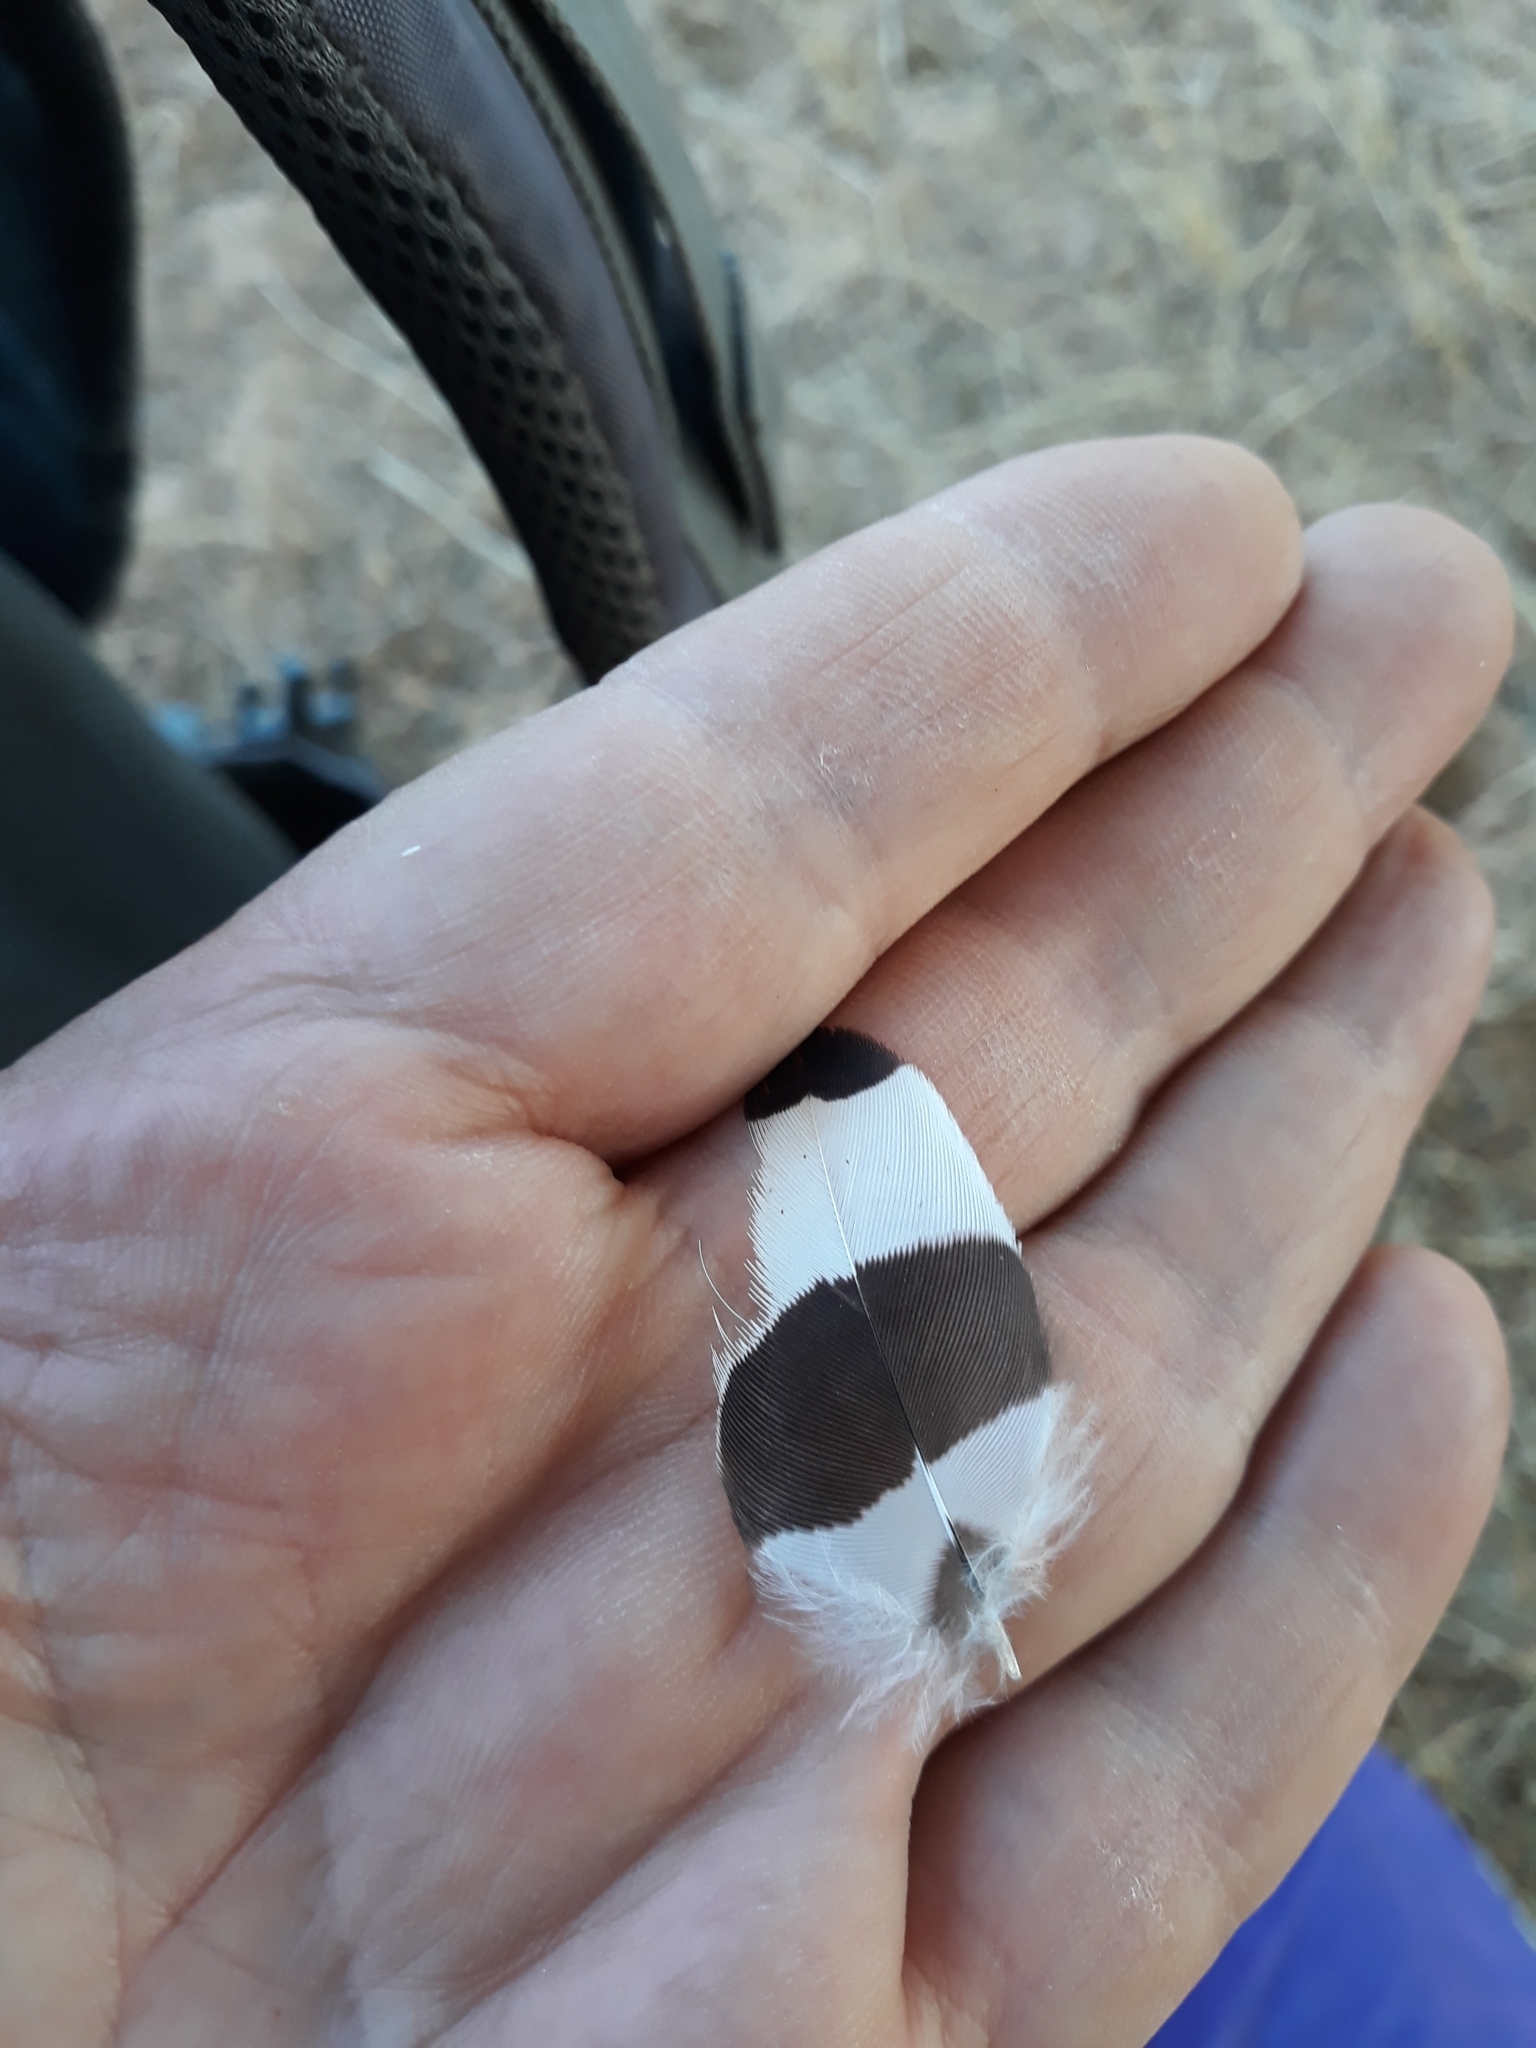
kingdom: Animalia
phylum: Chordata
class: Aves
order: Bucerotiformes
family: Upupidae
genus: Upupa
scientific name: Upupa epops
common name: Eurasian hoopoe
